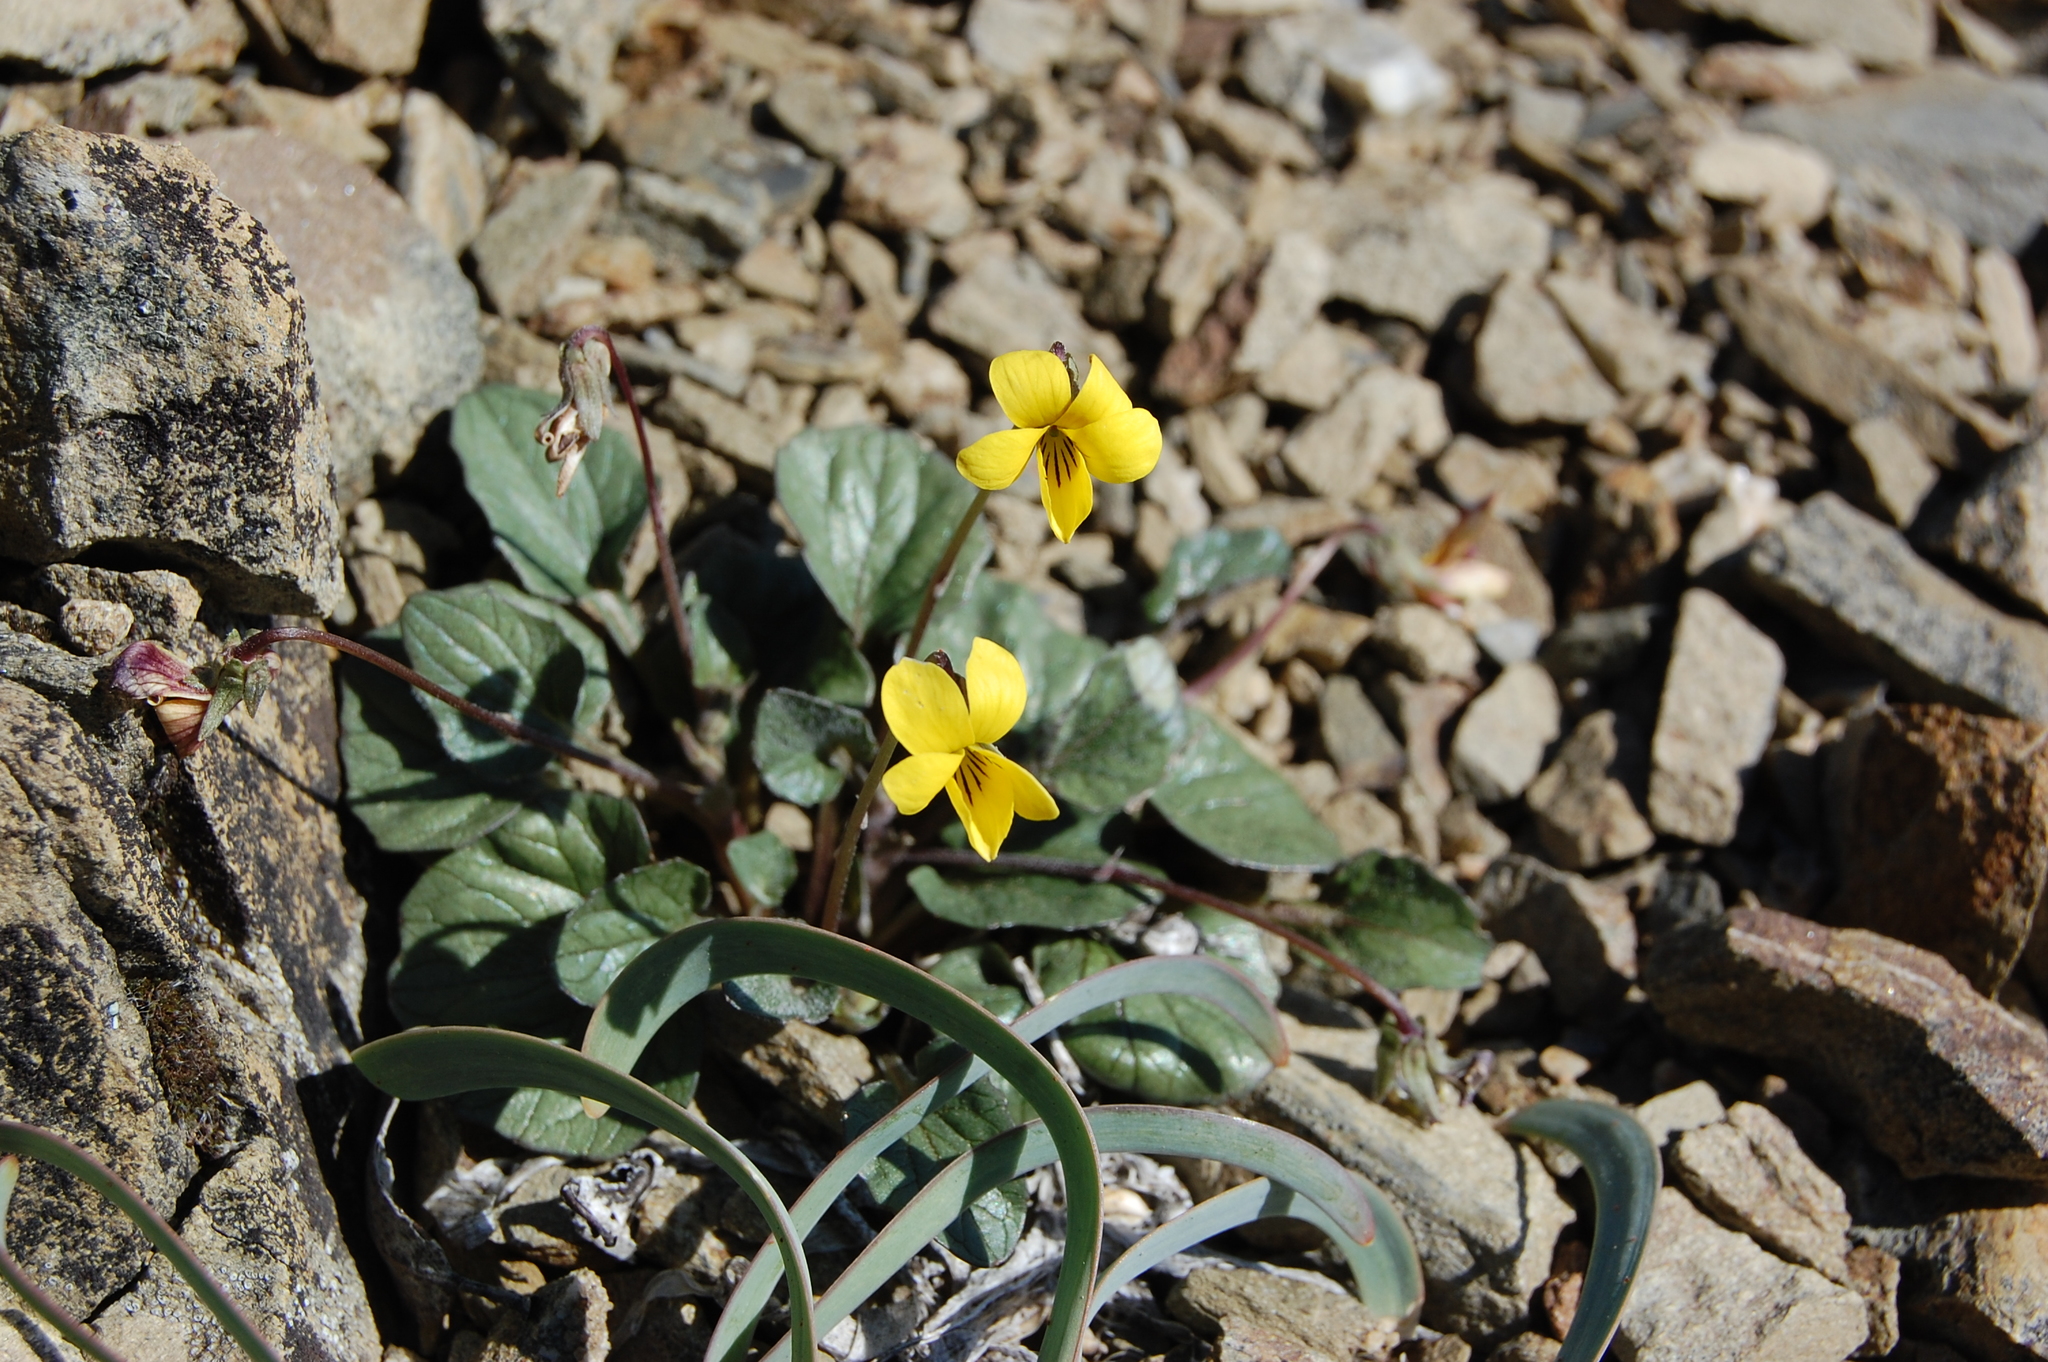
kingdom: Plantae
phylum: Tracheophyta
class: Magnoliopsida
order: Malpighiales
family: Violaceae
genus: Viola
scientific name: Viola purpurea
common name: Pine violet
